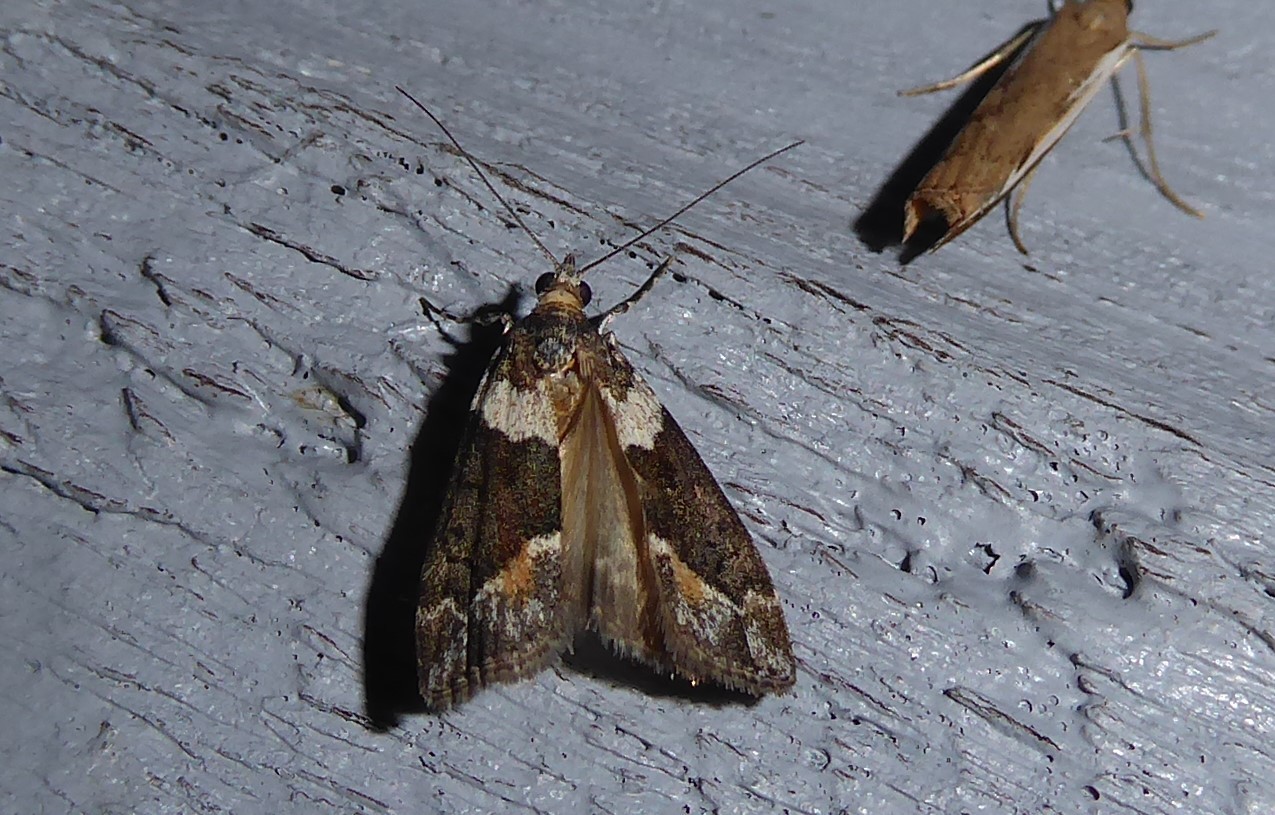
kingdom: Animalia
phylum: Arthropoda
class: Insecta
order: Lepidoptera
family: Crambidae
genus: Eudonia
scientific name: Eudonia submarginalis
